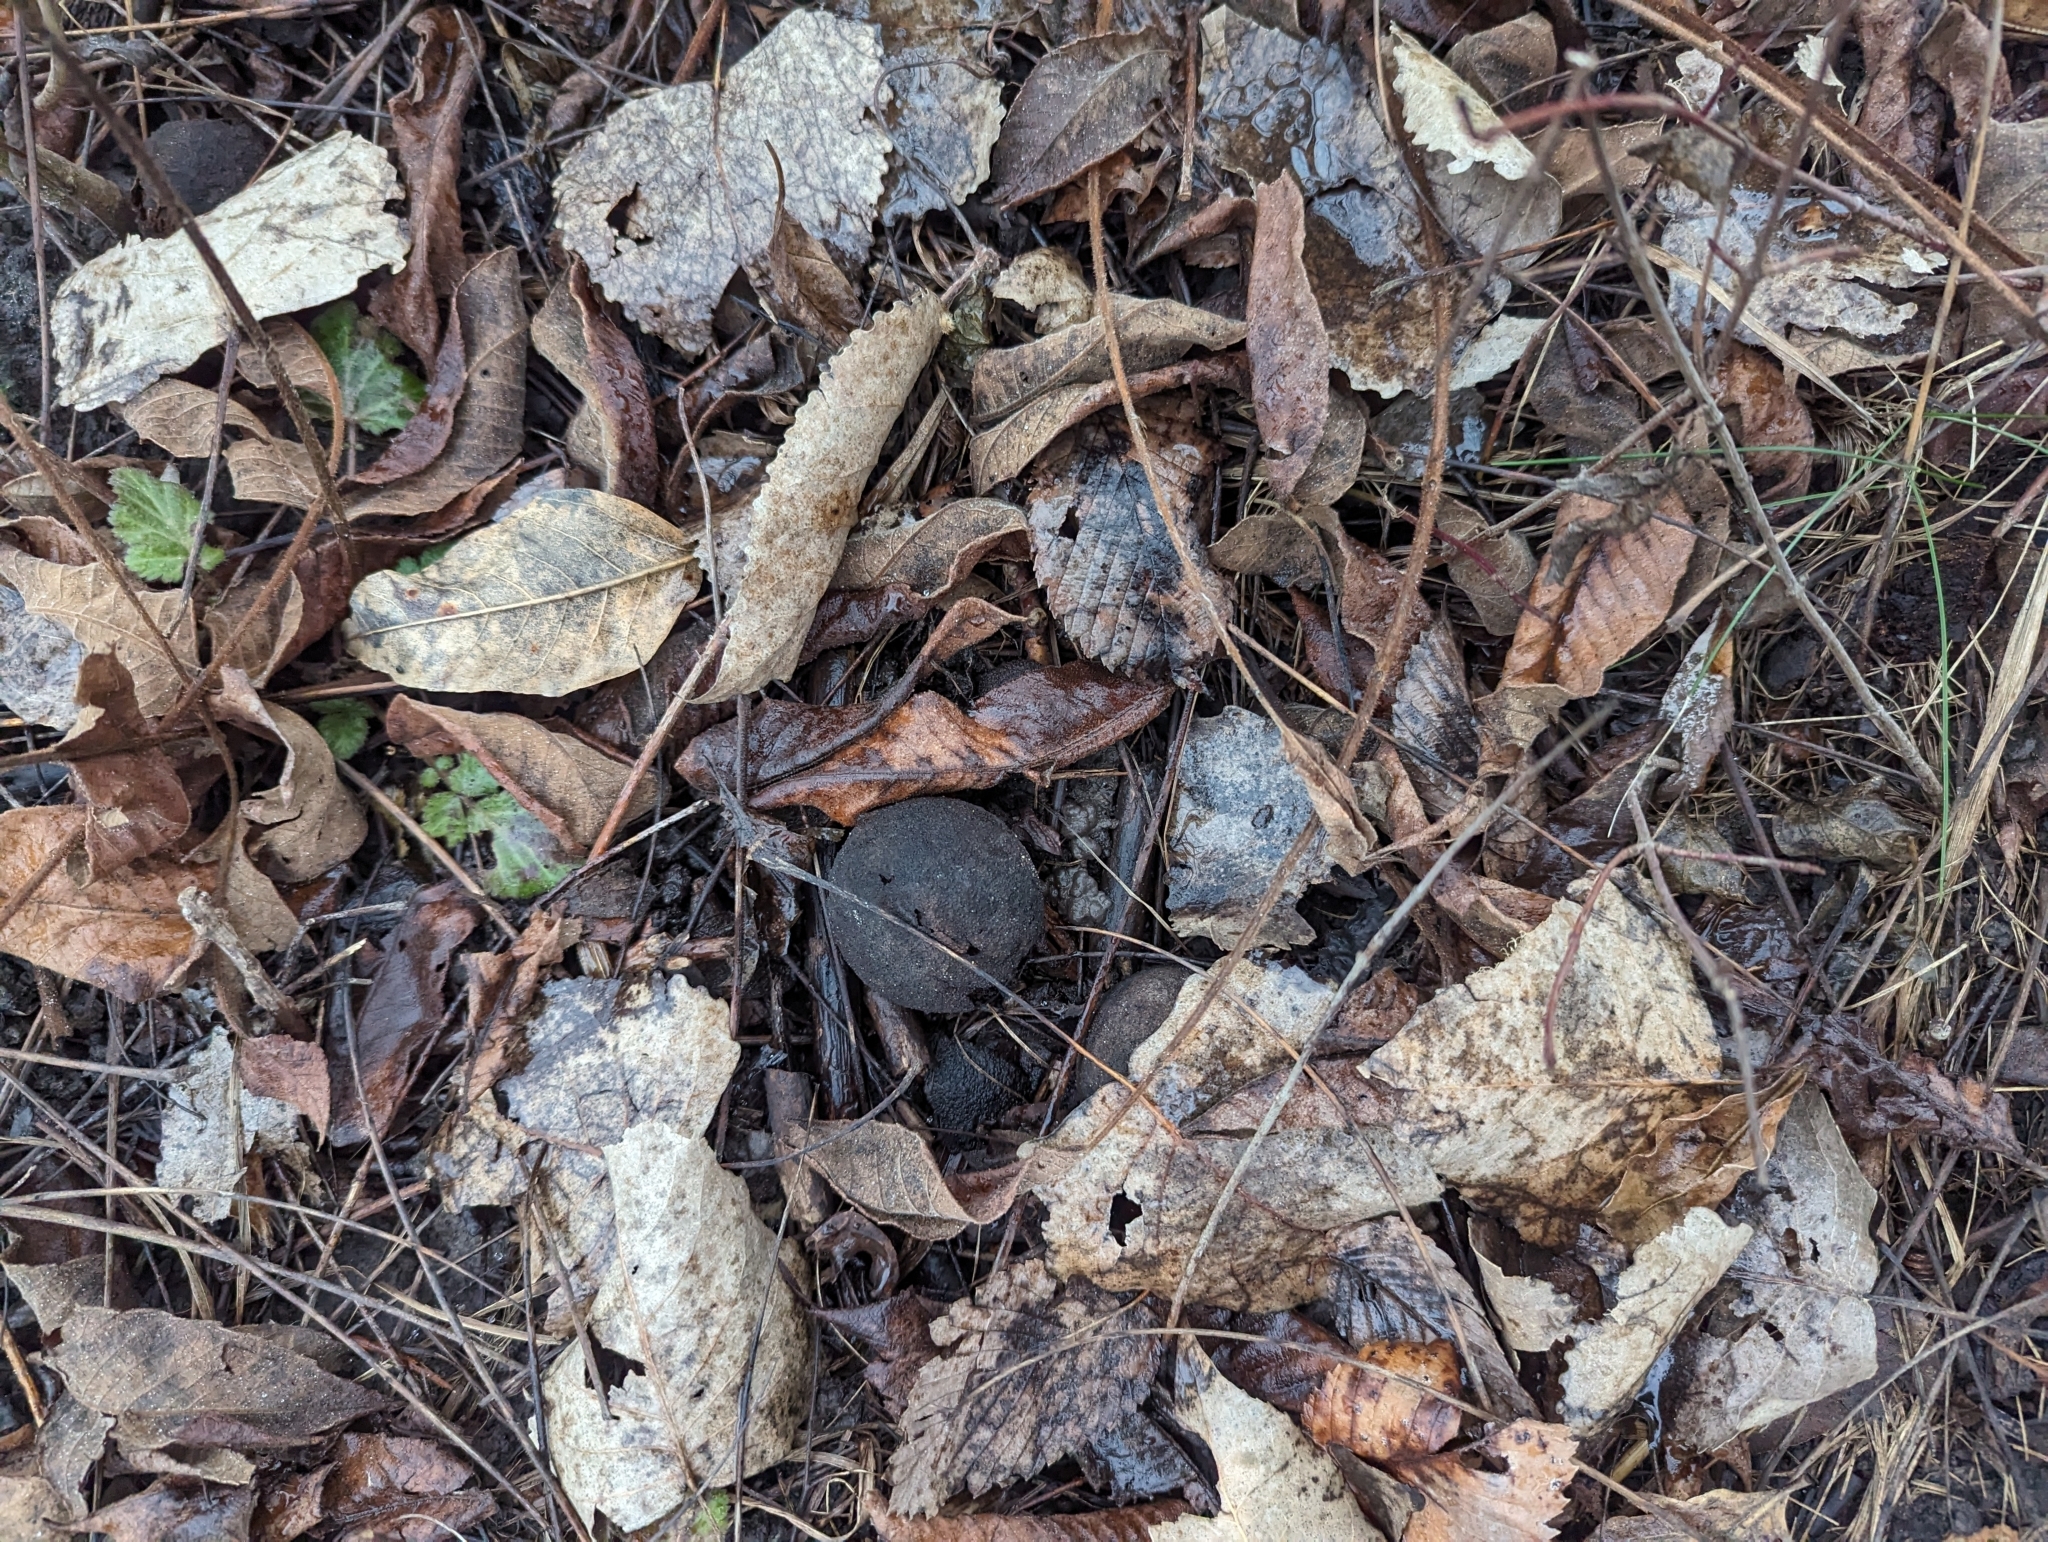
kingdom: Plantae
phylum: Tracheophyta
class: Magnoliopsida
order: Fagales
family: Juglandaceae
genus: Juglans
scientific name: Juglans nigra
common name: Black walnut
